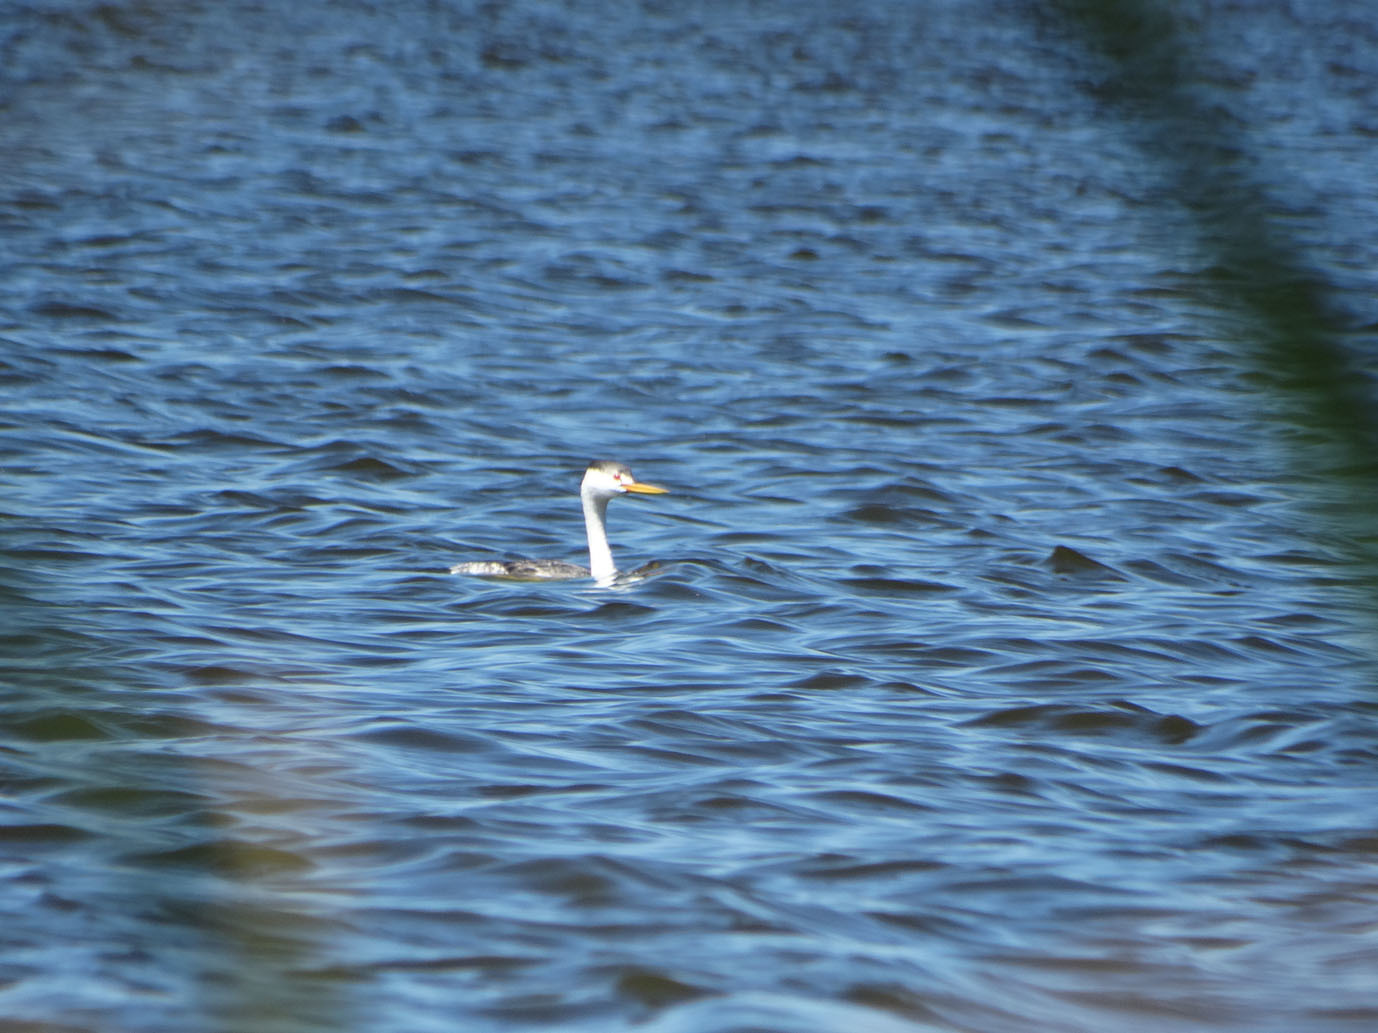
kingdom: Animalia
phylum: Chordata
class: Aves
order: Podicipediformes
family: Podicipedidae
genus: Aechmophorus
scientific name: Aechmophorus clarkii
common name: Clark's grebe
